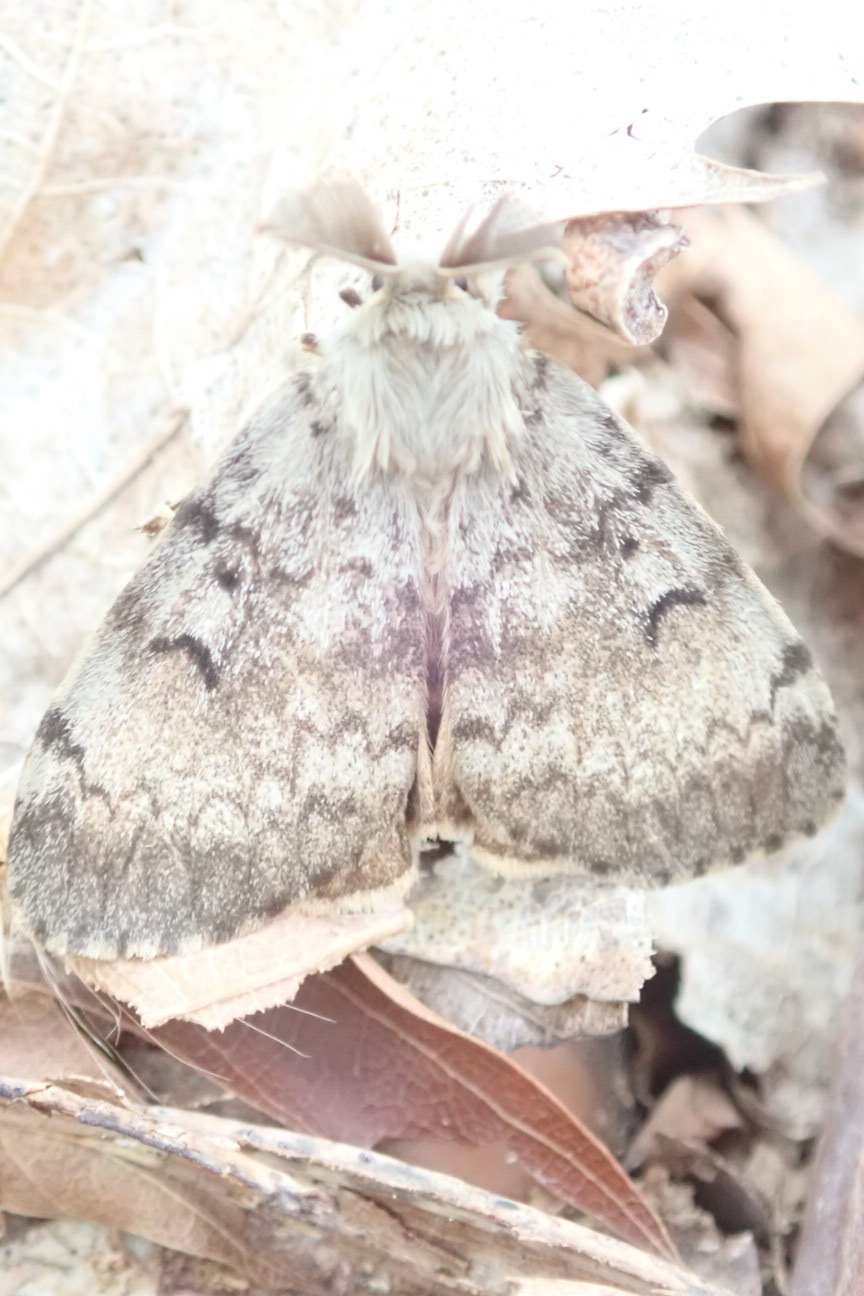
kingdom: Animalia
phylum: Arthropoda
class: Insecta
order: Lepidoptera
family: Erebidae
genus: Lymantria
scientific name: Lymantria dispar
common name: Gypsy moth
